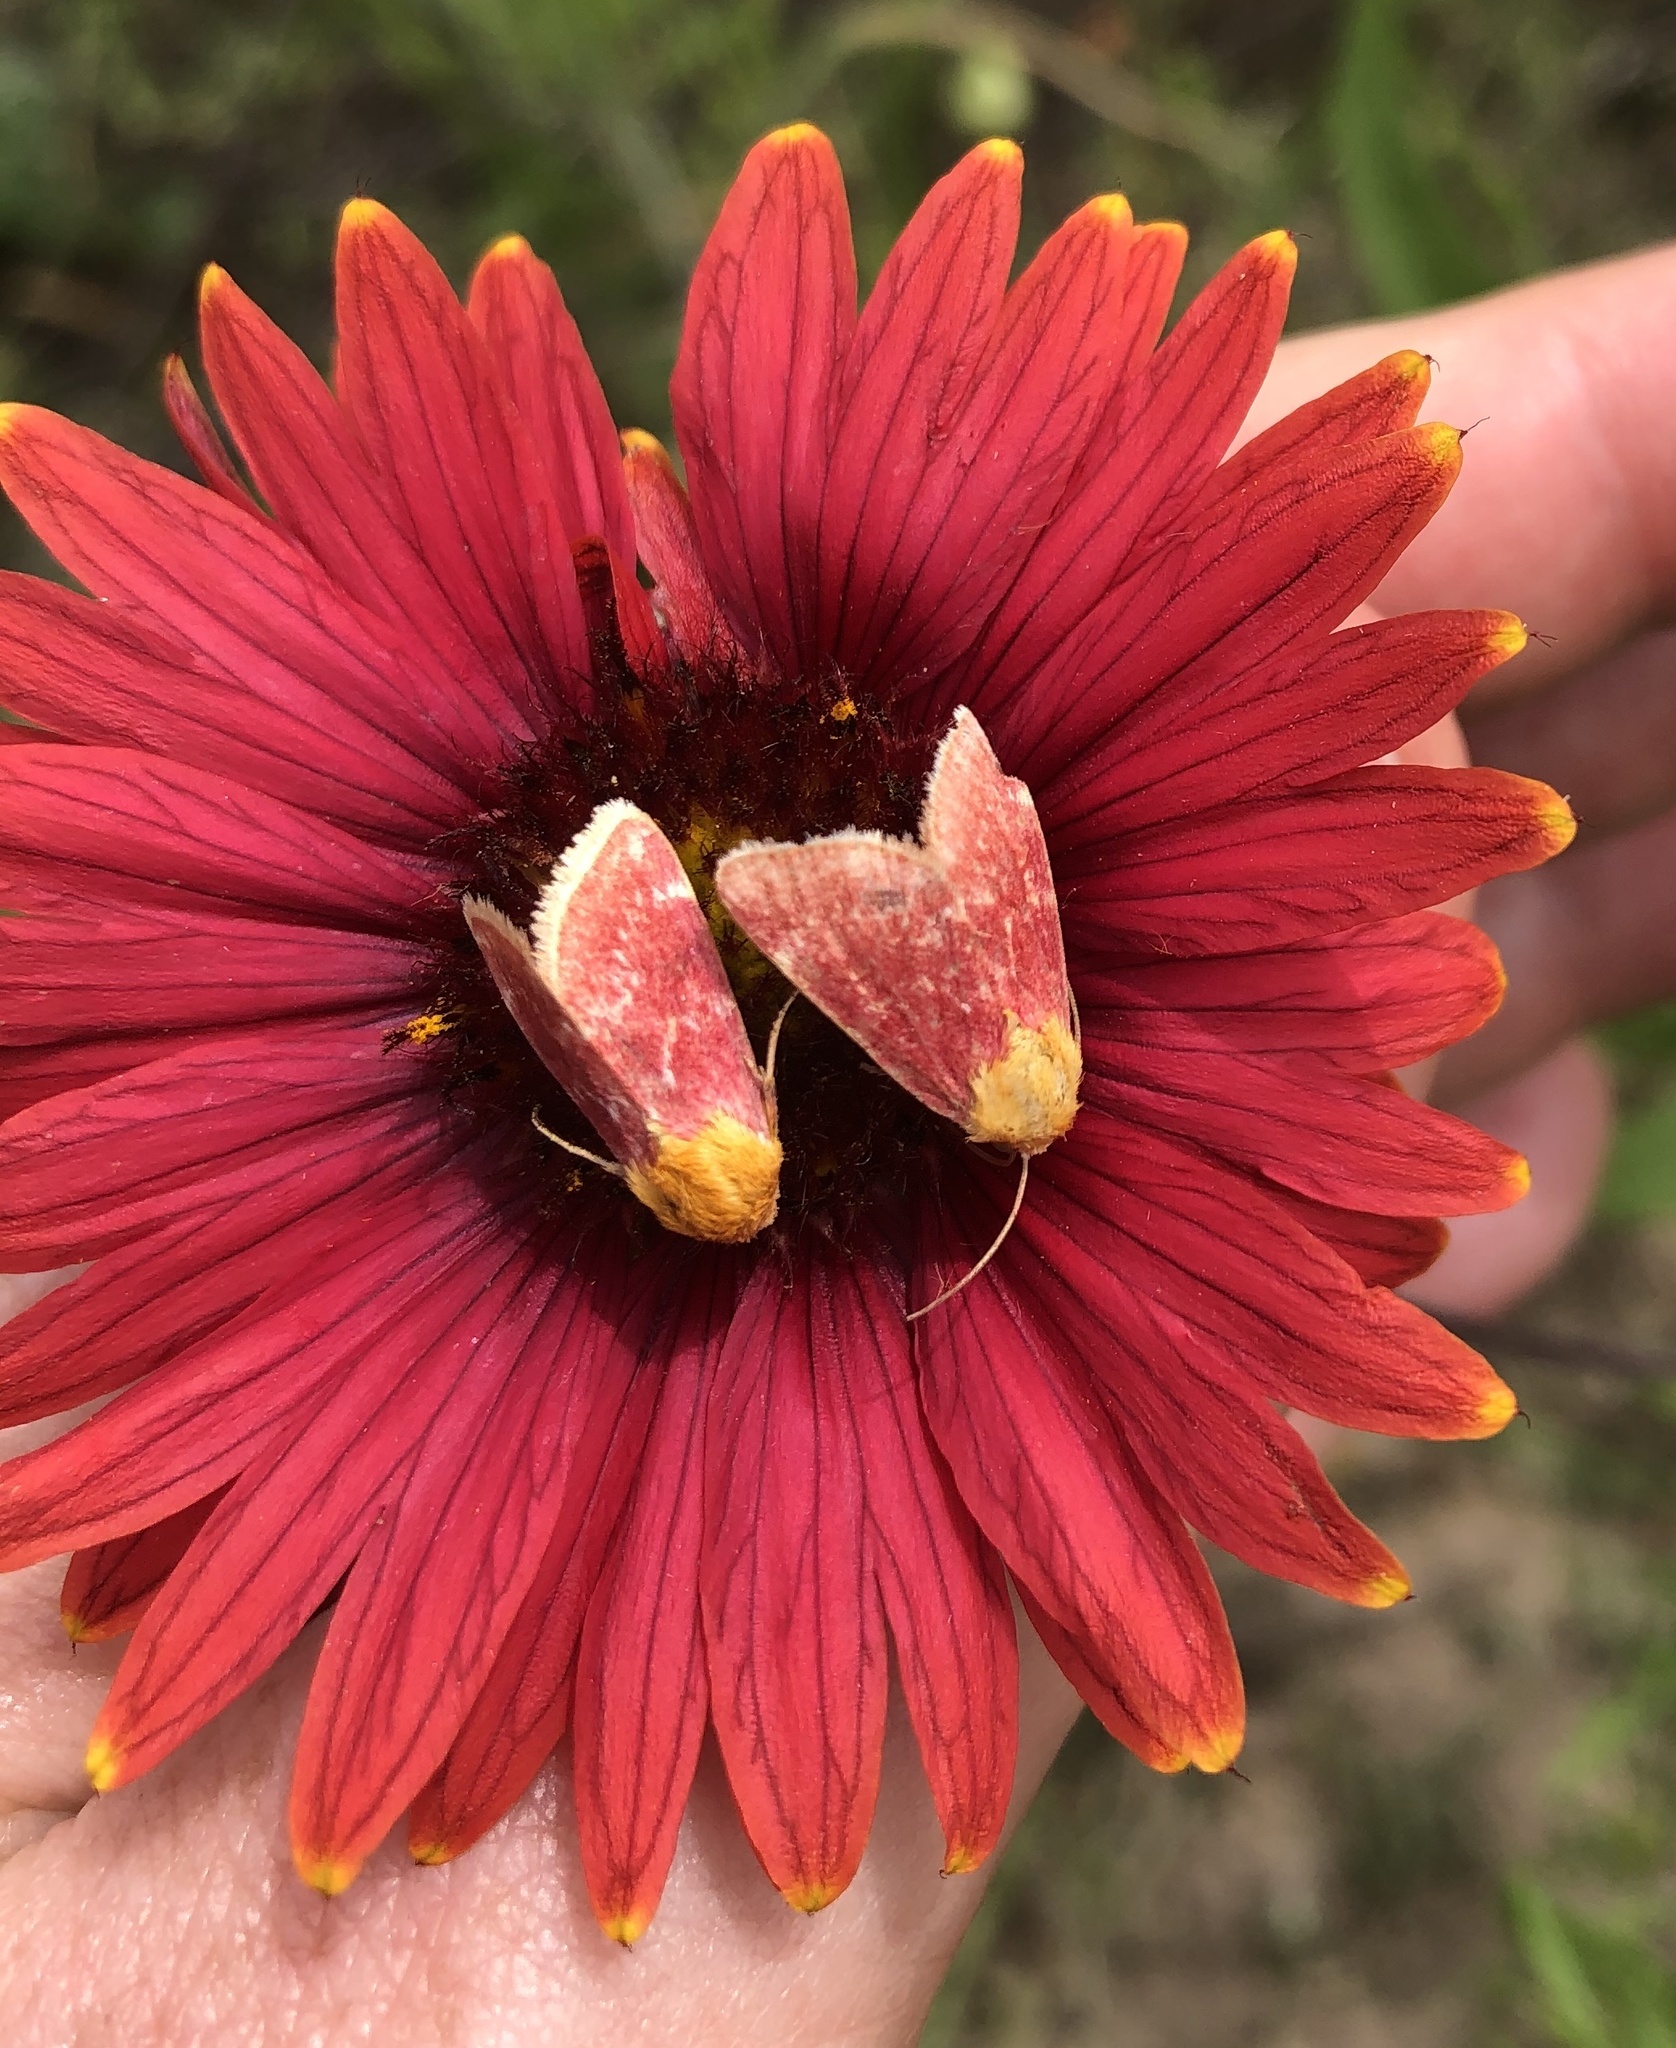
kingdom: Animalia
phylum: Arthropoda
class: Insecta
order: Lepidoptera
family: Noctuidae
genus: Schinia
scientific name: Schinia volupia
